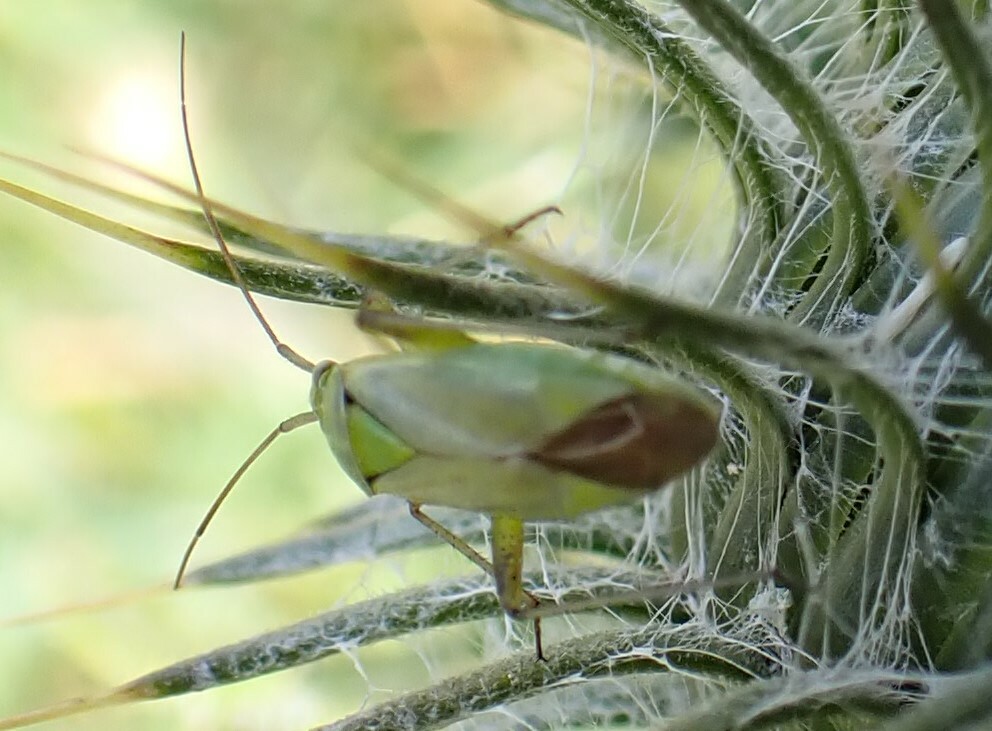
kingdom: Animalia
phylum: Arthropoda
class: Insecta
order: Hemiptera
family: Miridae
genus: Closterotomus
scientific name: Closterotomus norvegicus
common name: Plant bug
